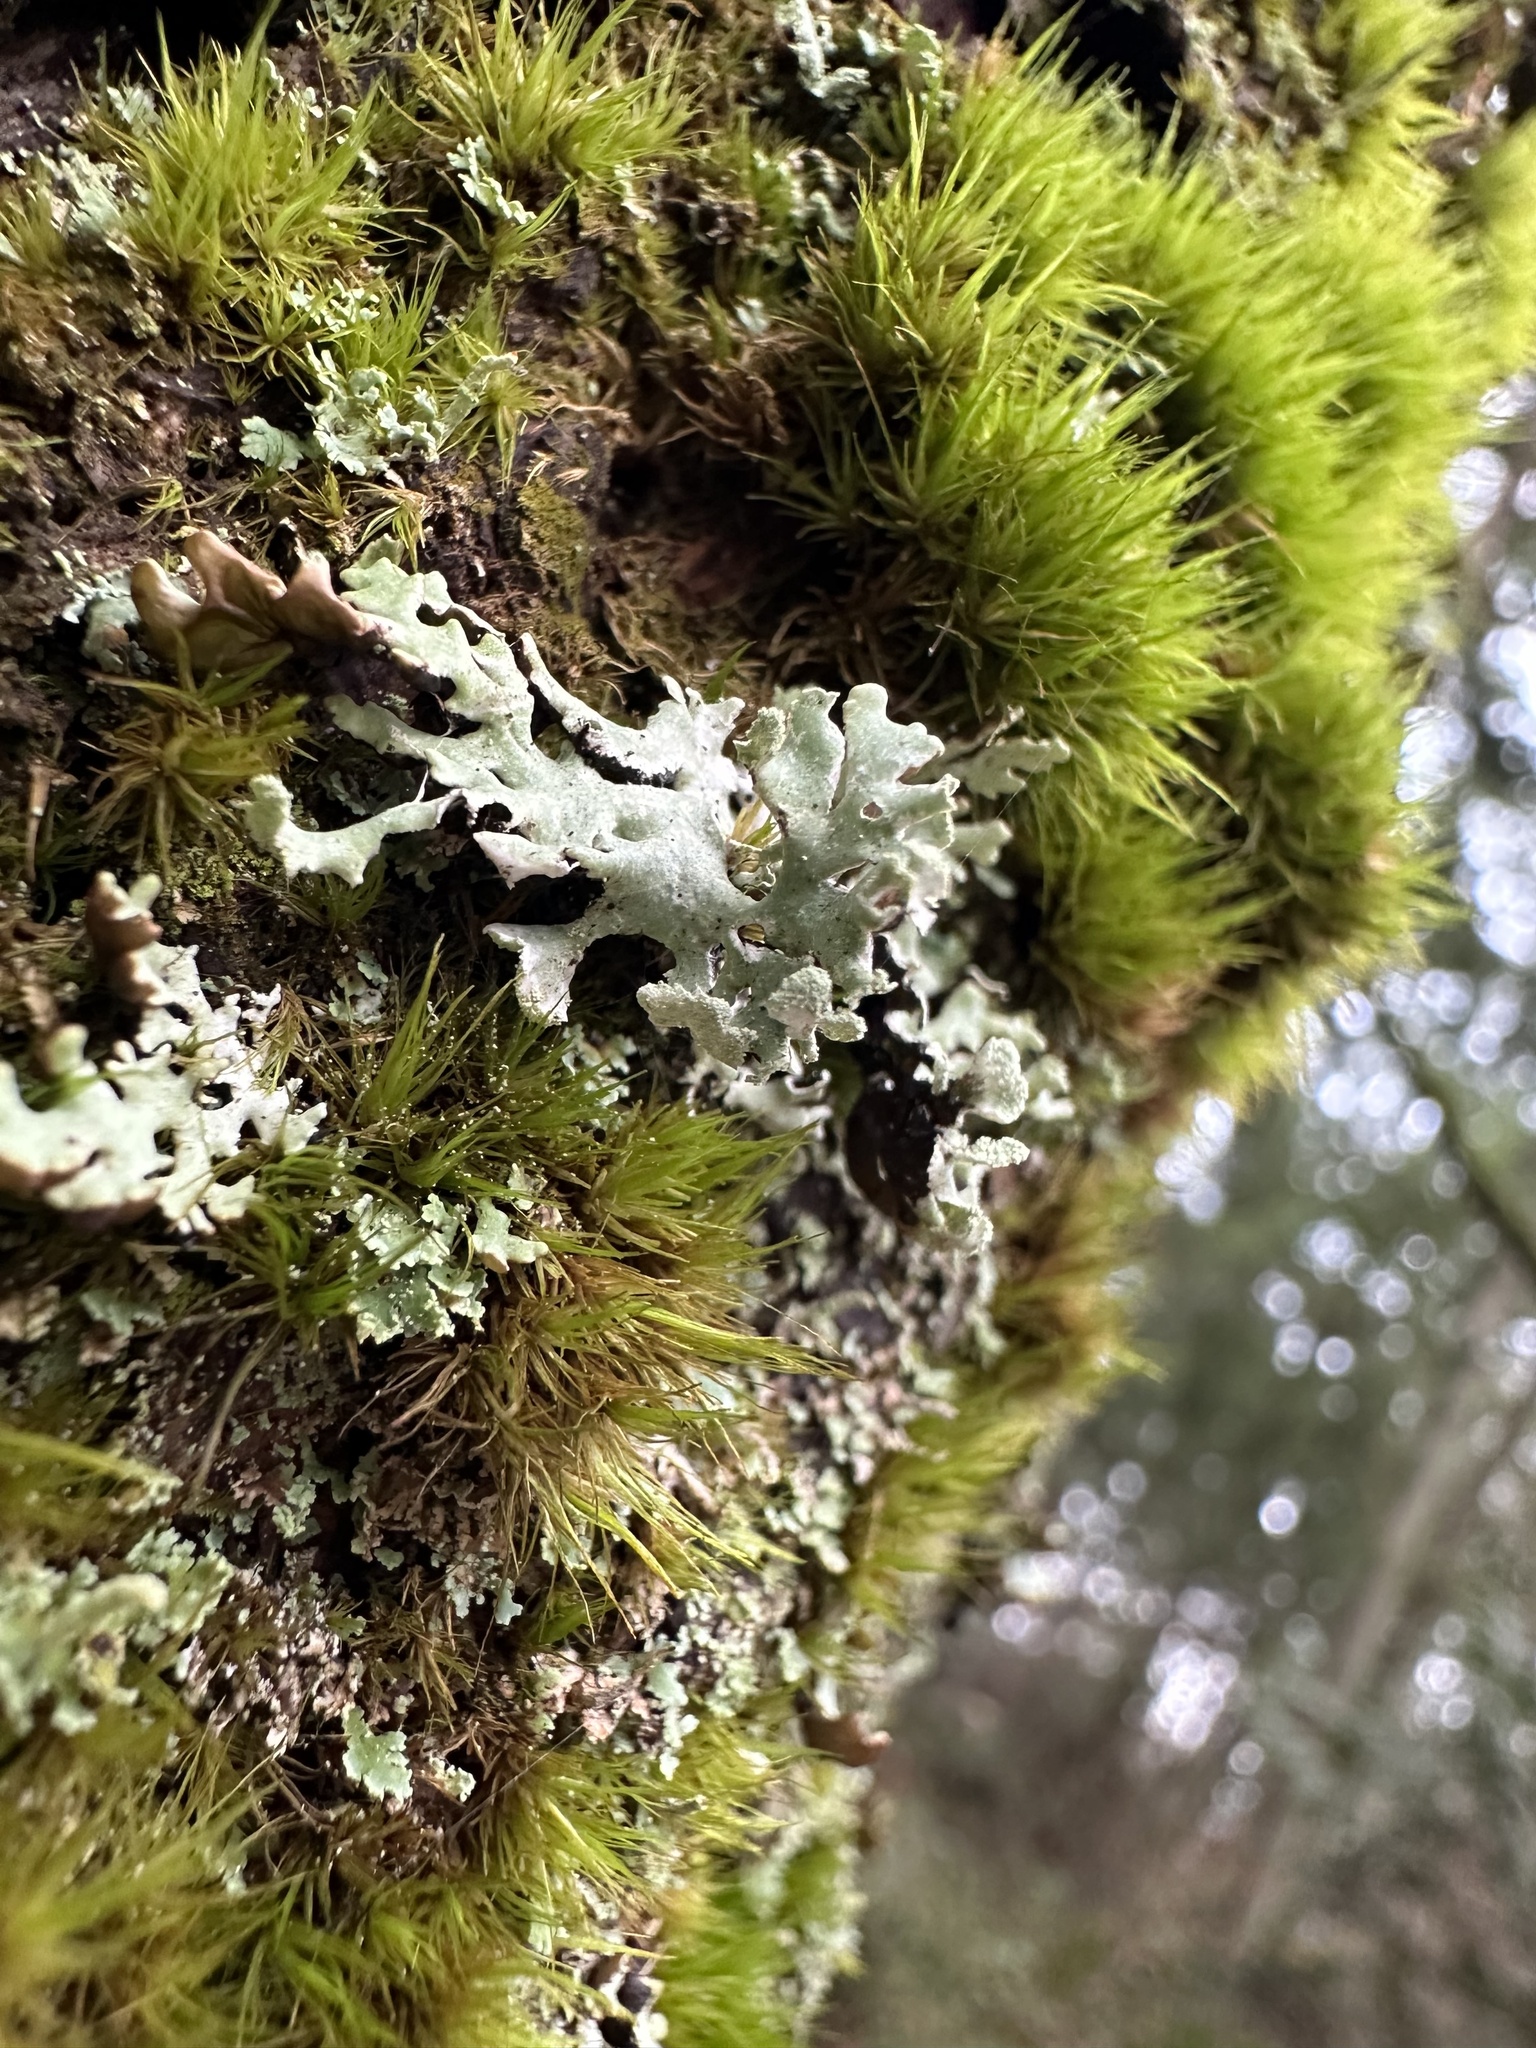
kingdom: Fungi
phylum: Ascomycota
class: Lecanoromycetes
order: Lecanorales
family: Parmeliaceae
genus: Hypogymnia
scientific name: Hypogymnia physodes
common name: Dark crottle
